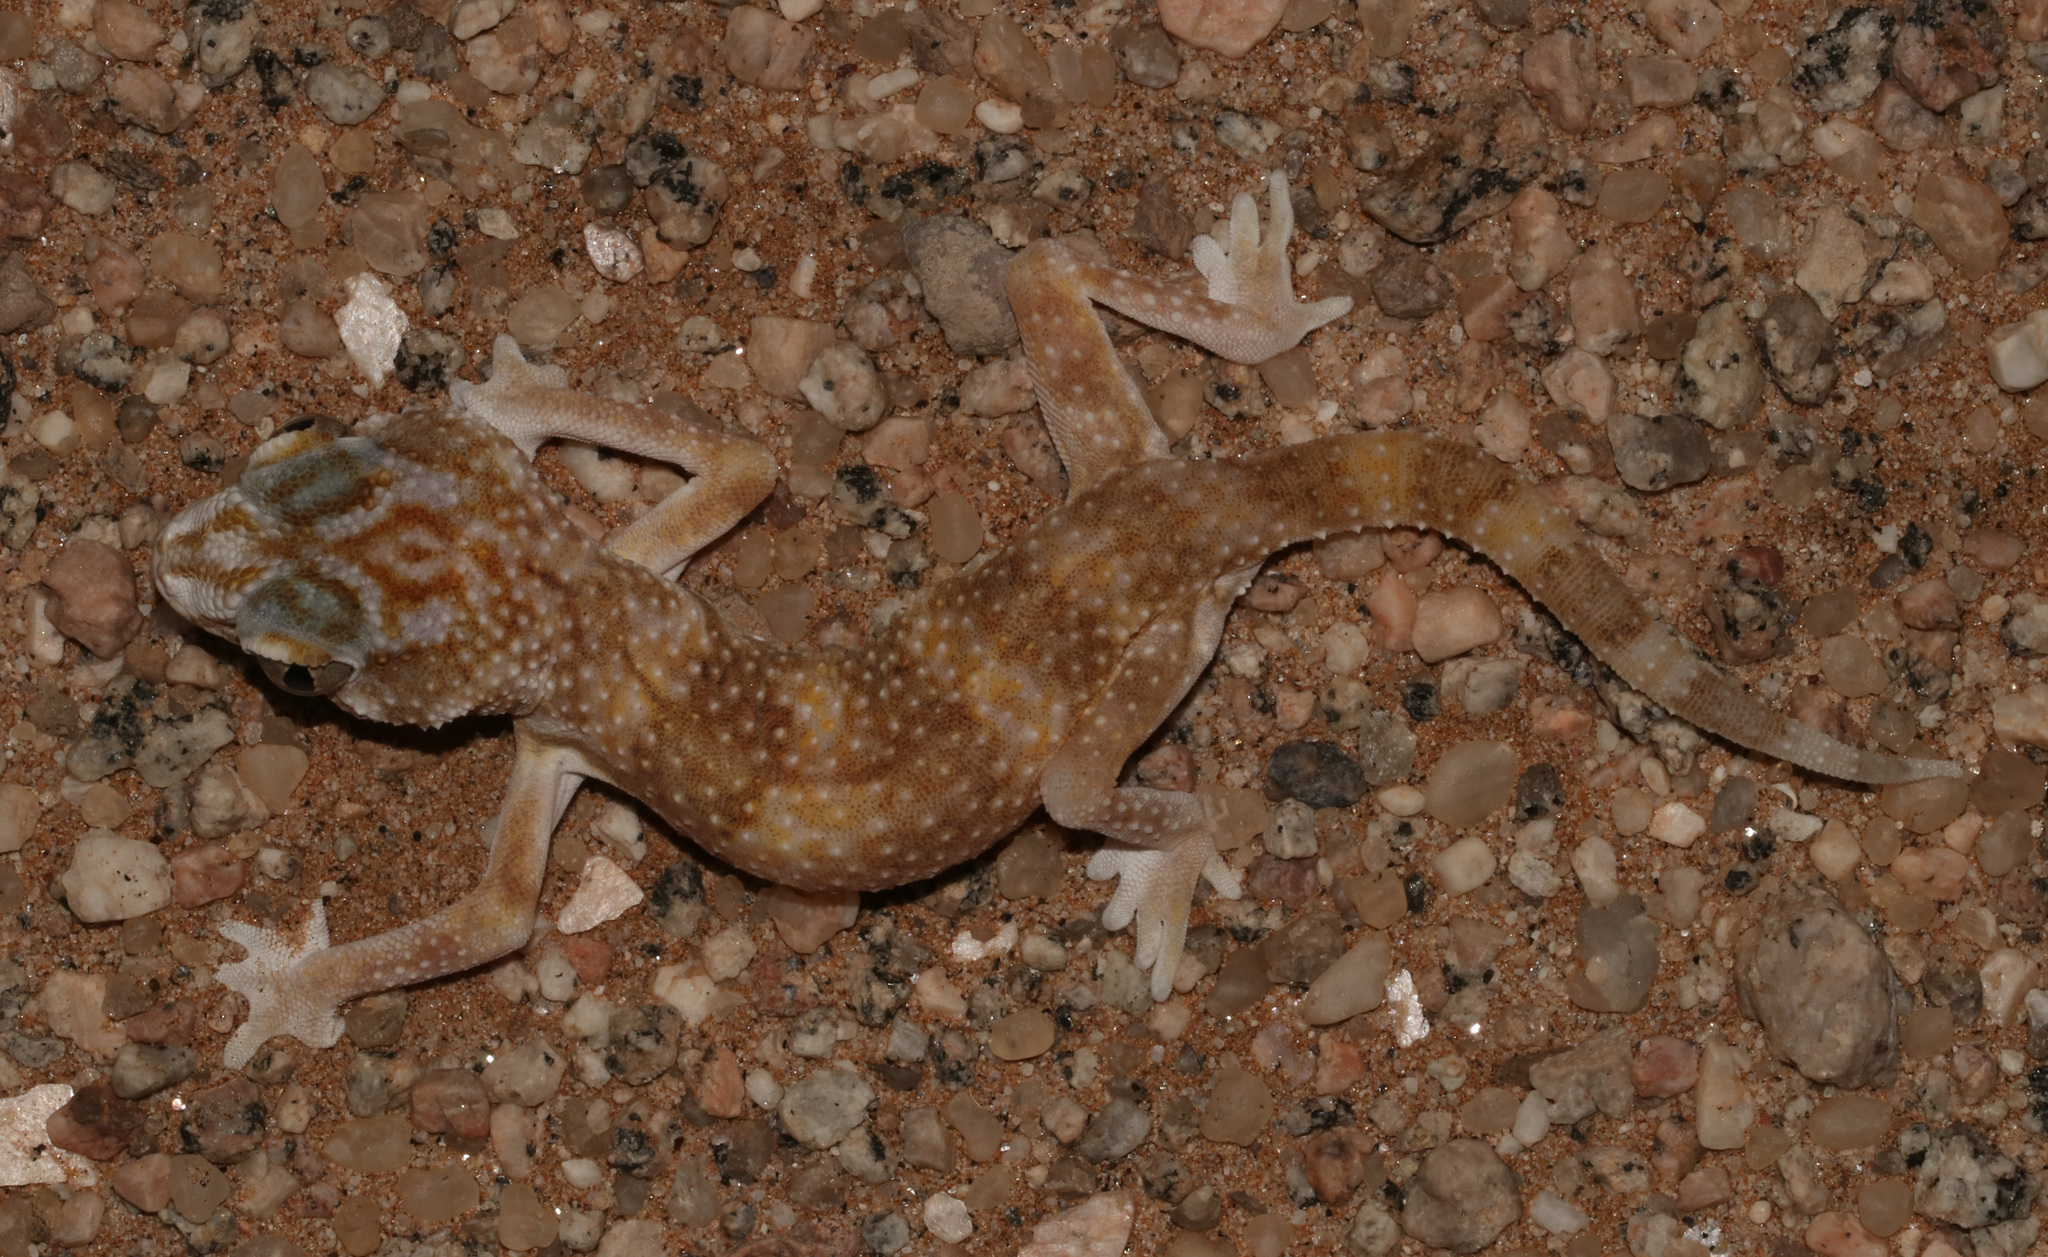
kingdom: Animalia
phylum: Chordata
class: Squamata
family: Gekkonidae
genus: Chondrodactylus
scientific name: Chondrodactylus angulifer
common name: Common giant ground gecko
